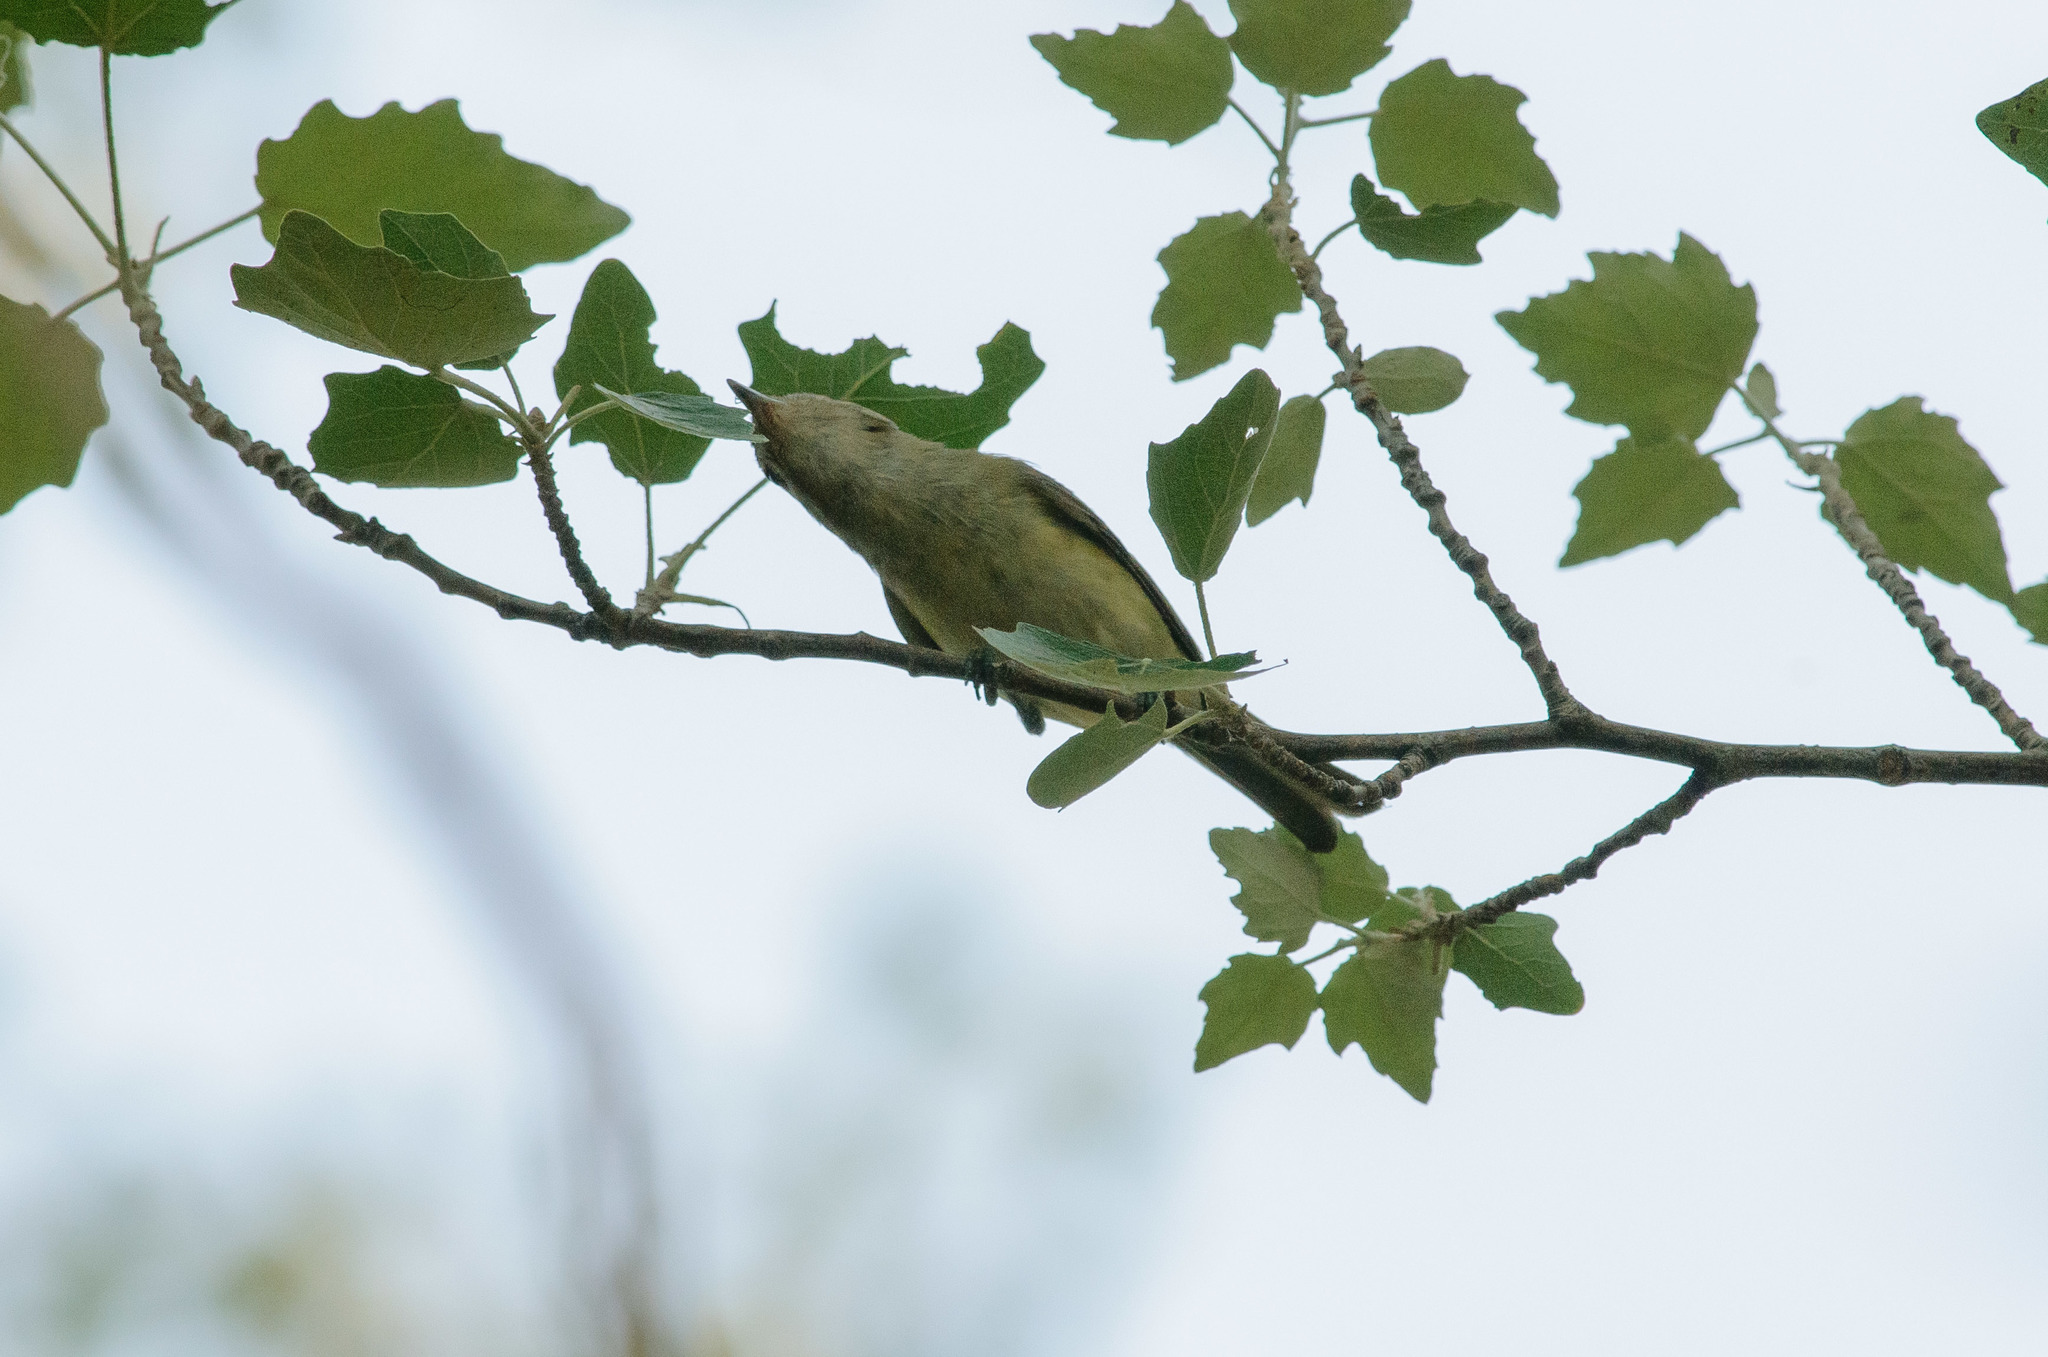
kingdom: Animalia
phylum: Chordata
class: Aves
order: Passeriformes
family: Vireonidae
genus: Vireo
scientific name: Vireo gilvus
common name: Warbling vireo
